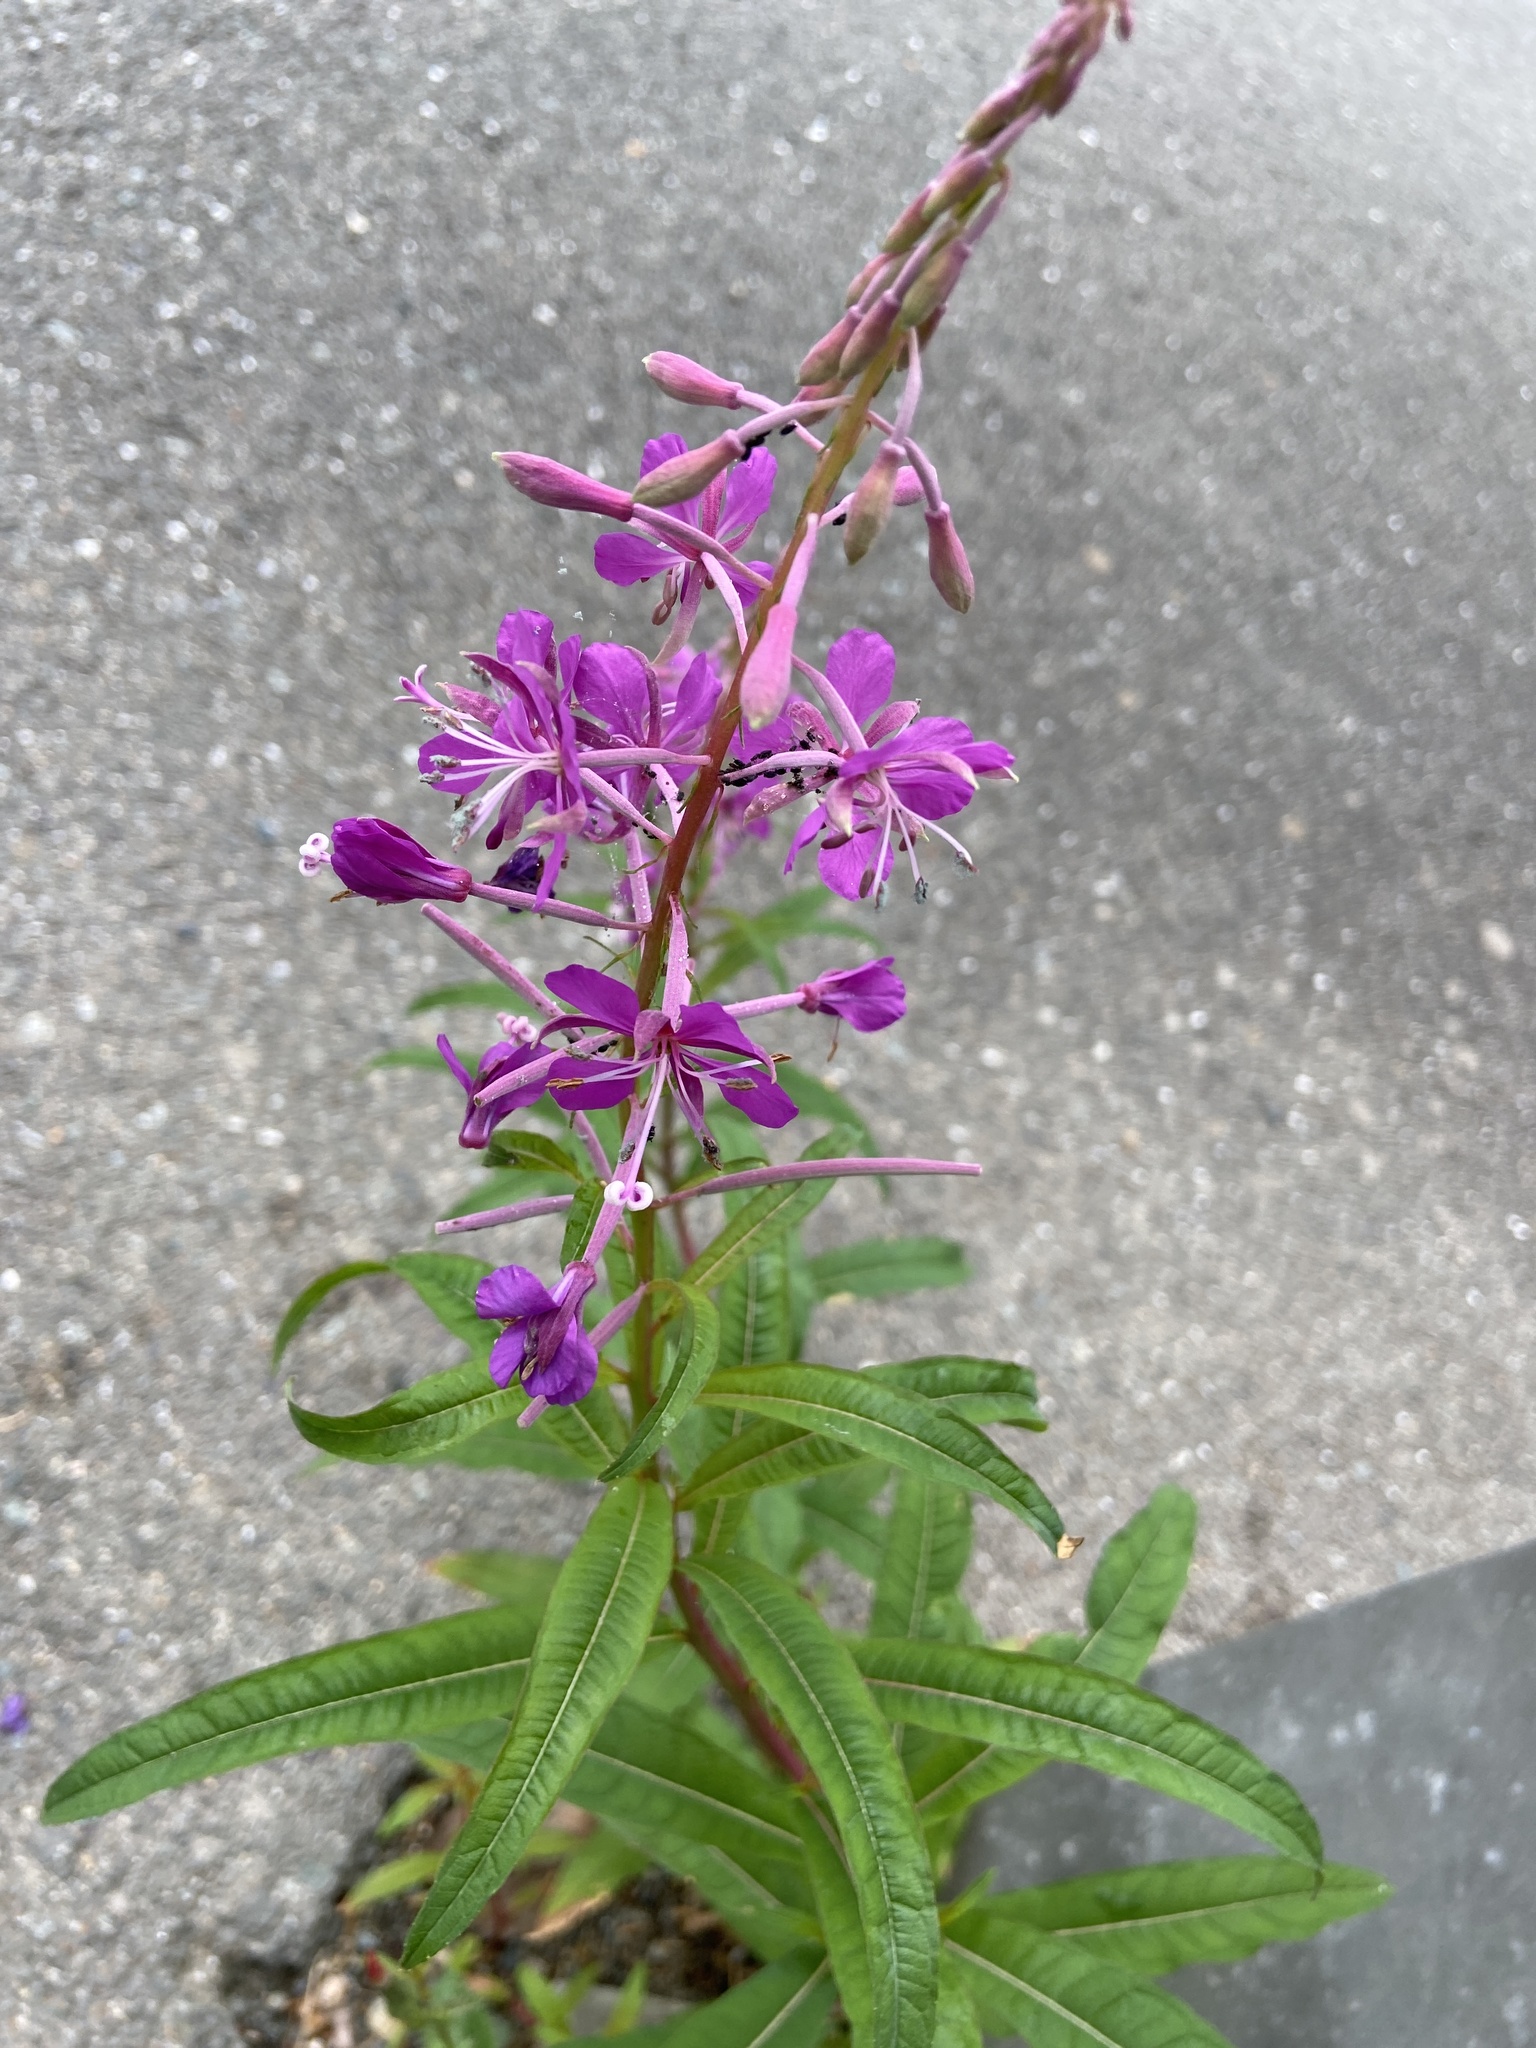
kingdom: Plantae
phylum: Tracheophyta
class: Magnoliopsida
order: Myrtales
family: Onagraceae
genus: Chamaenerion
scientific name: Chamaenerion angustifolium
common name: Fireweed
